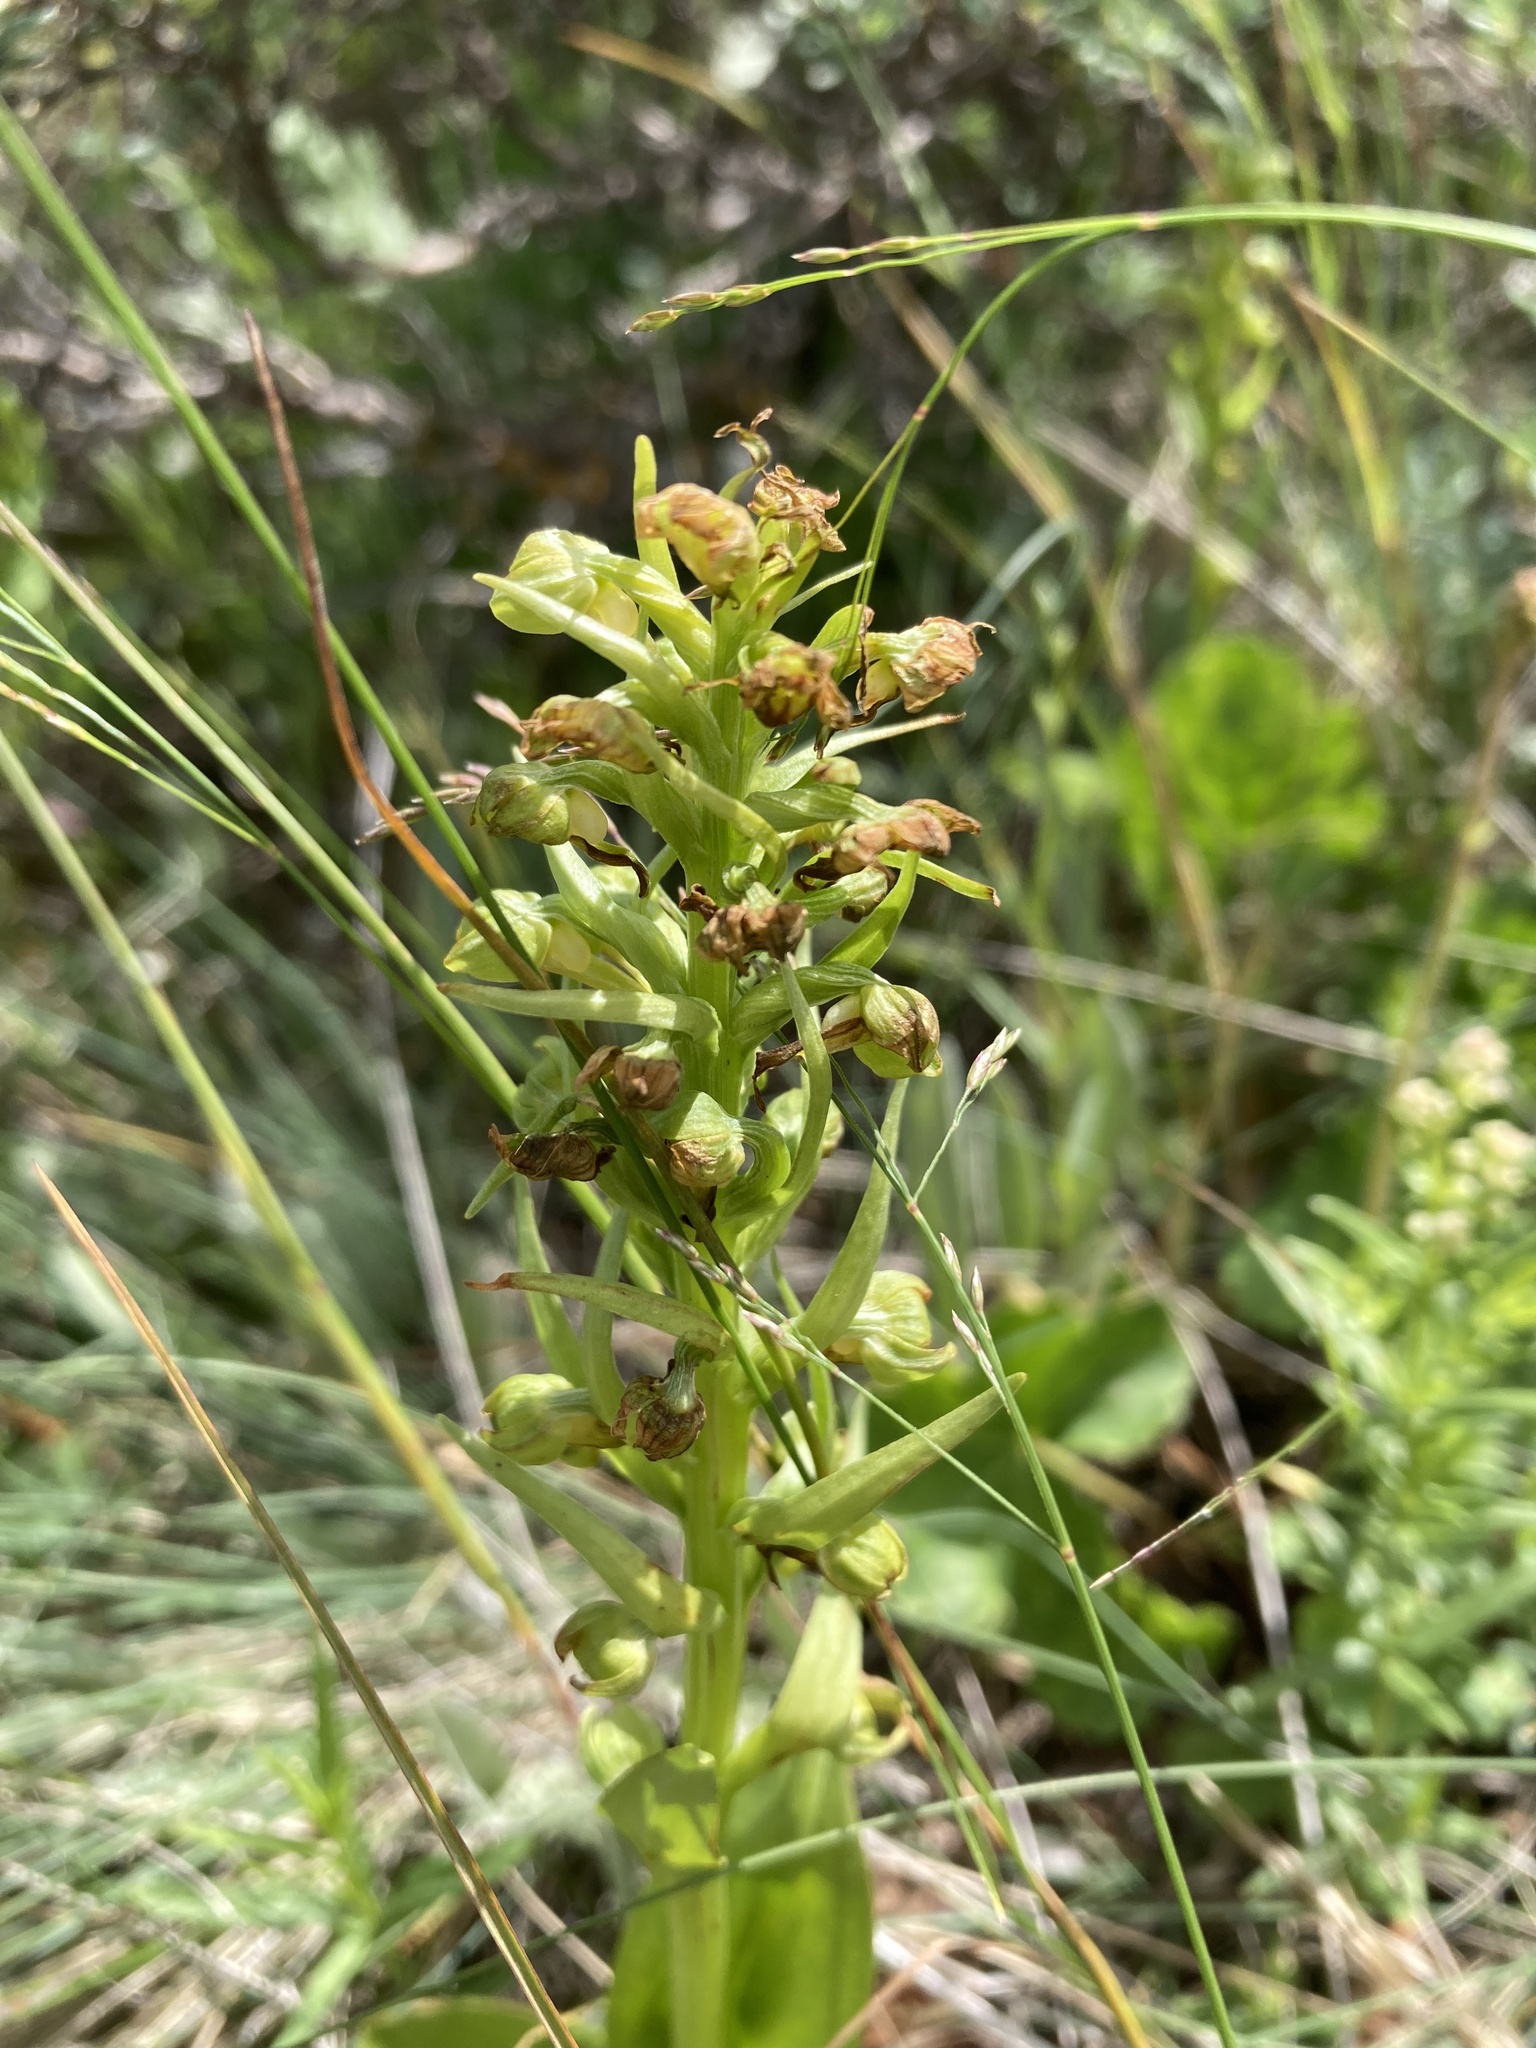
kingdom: Plantae
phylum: Tracheophyta
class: Liliopsida
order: Asparagales
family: Orchidaceae
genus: Dactylorhiza
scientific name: Dactylorhiza viridis
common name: Longbract frog orchid
